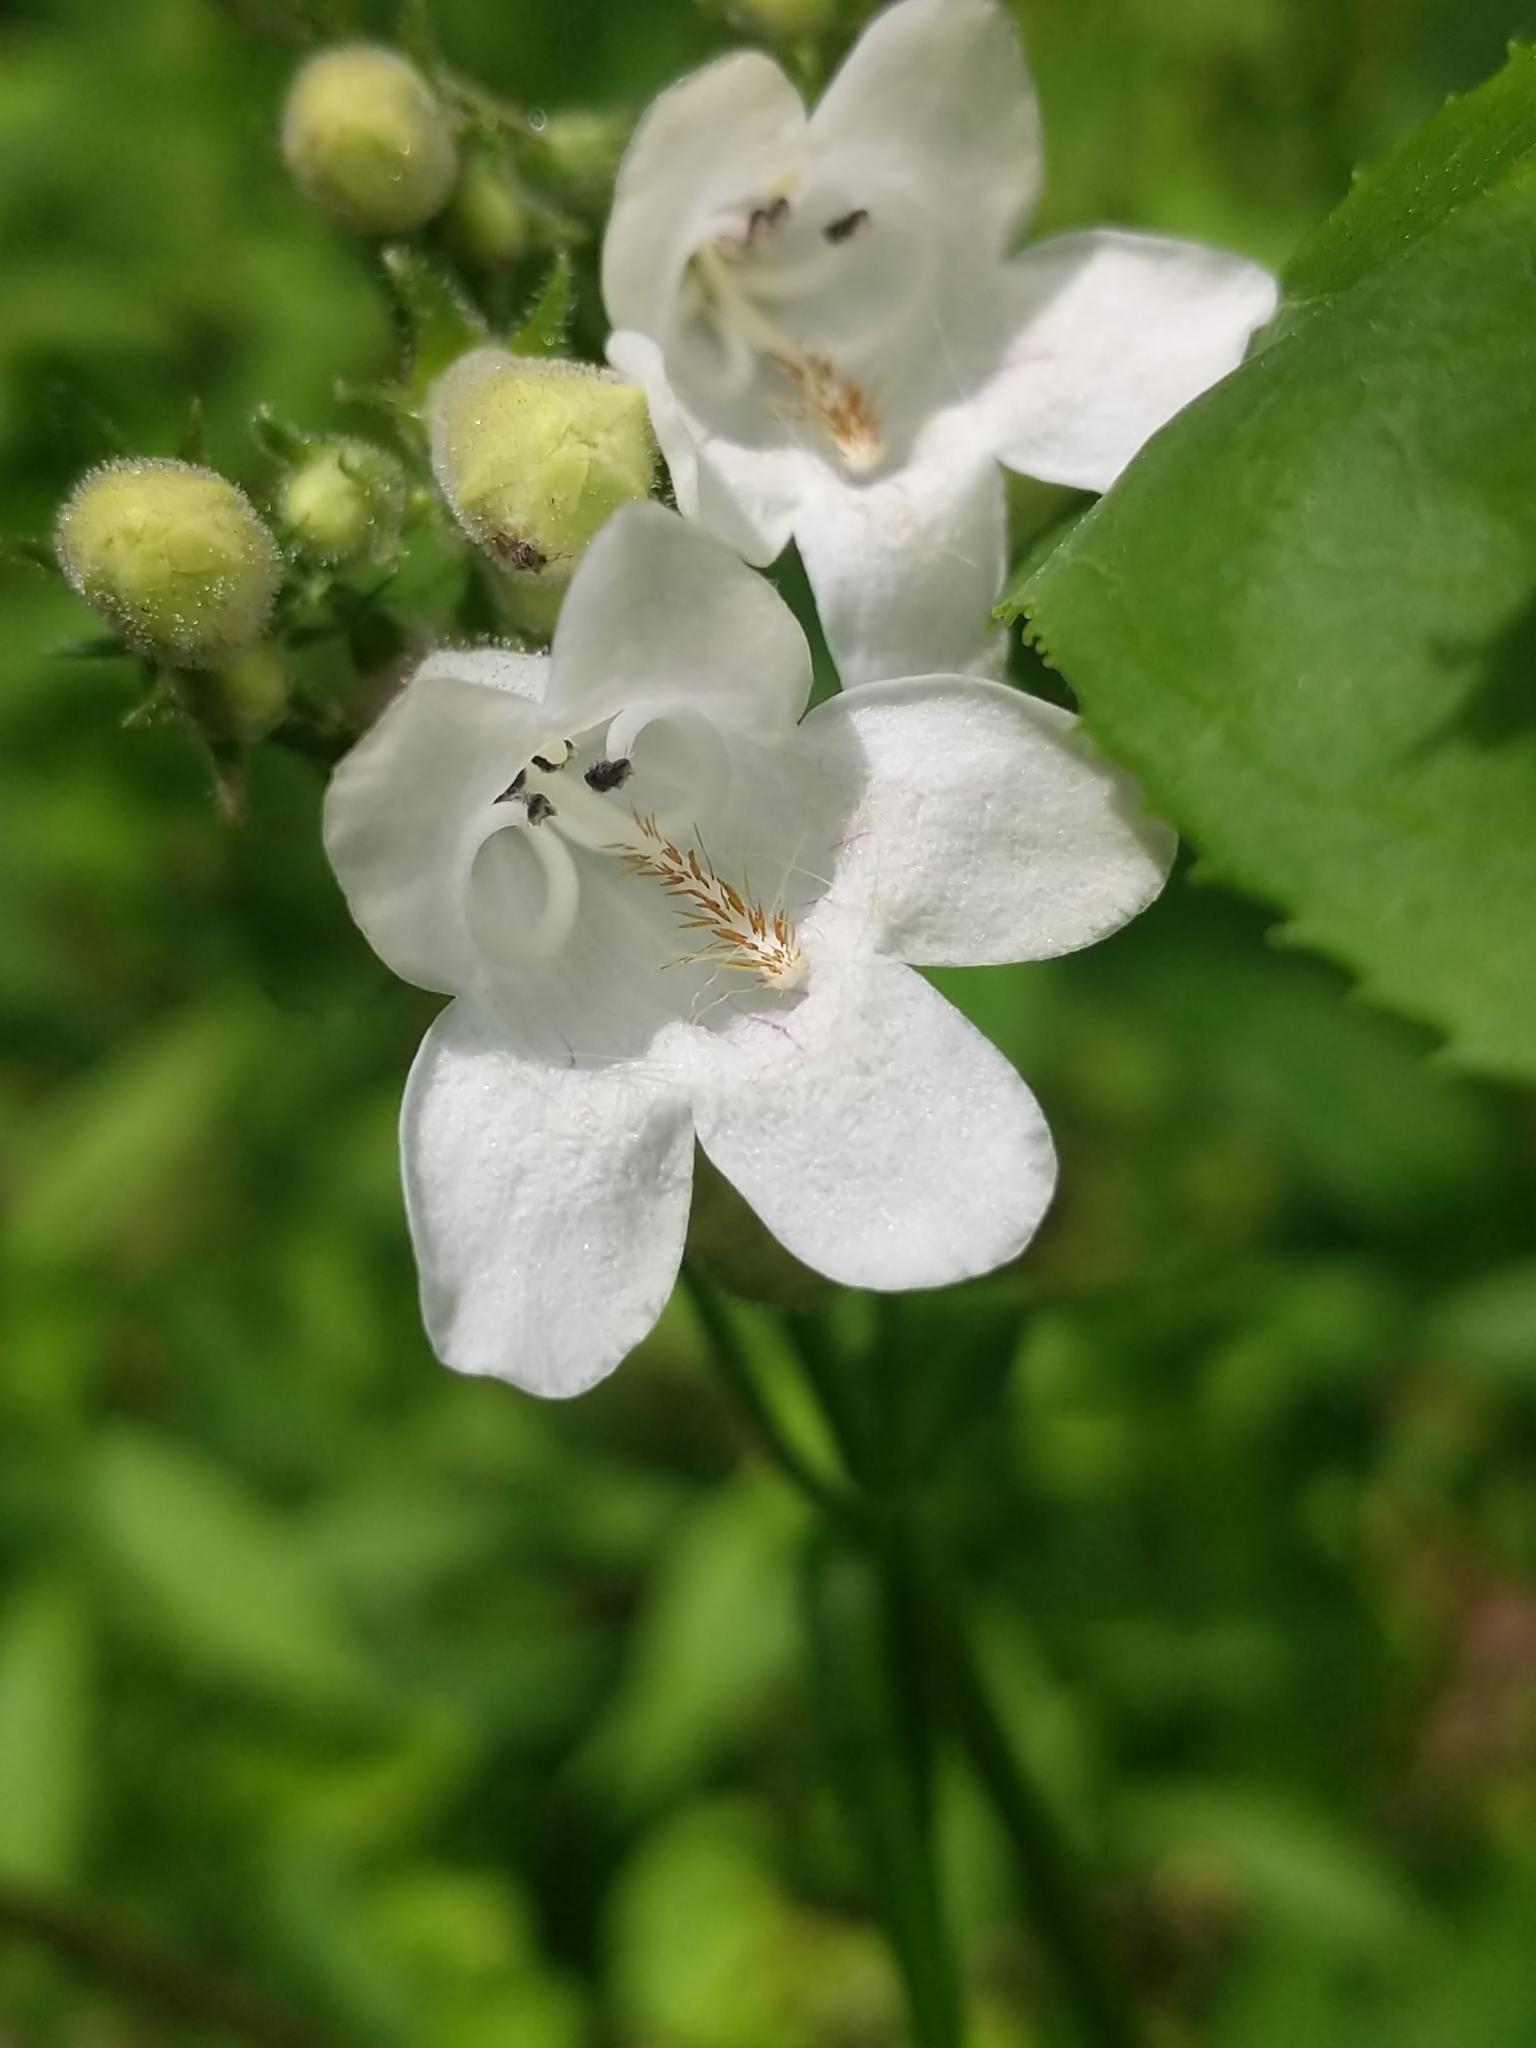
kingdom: Plantae
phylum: Tracheophyta
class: Magnoliopsida
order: Lamiales
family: Plantaginaceae
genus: Penstemon
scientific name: Penstemon digitalis
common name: Foxglove beardtongue
